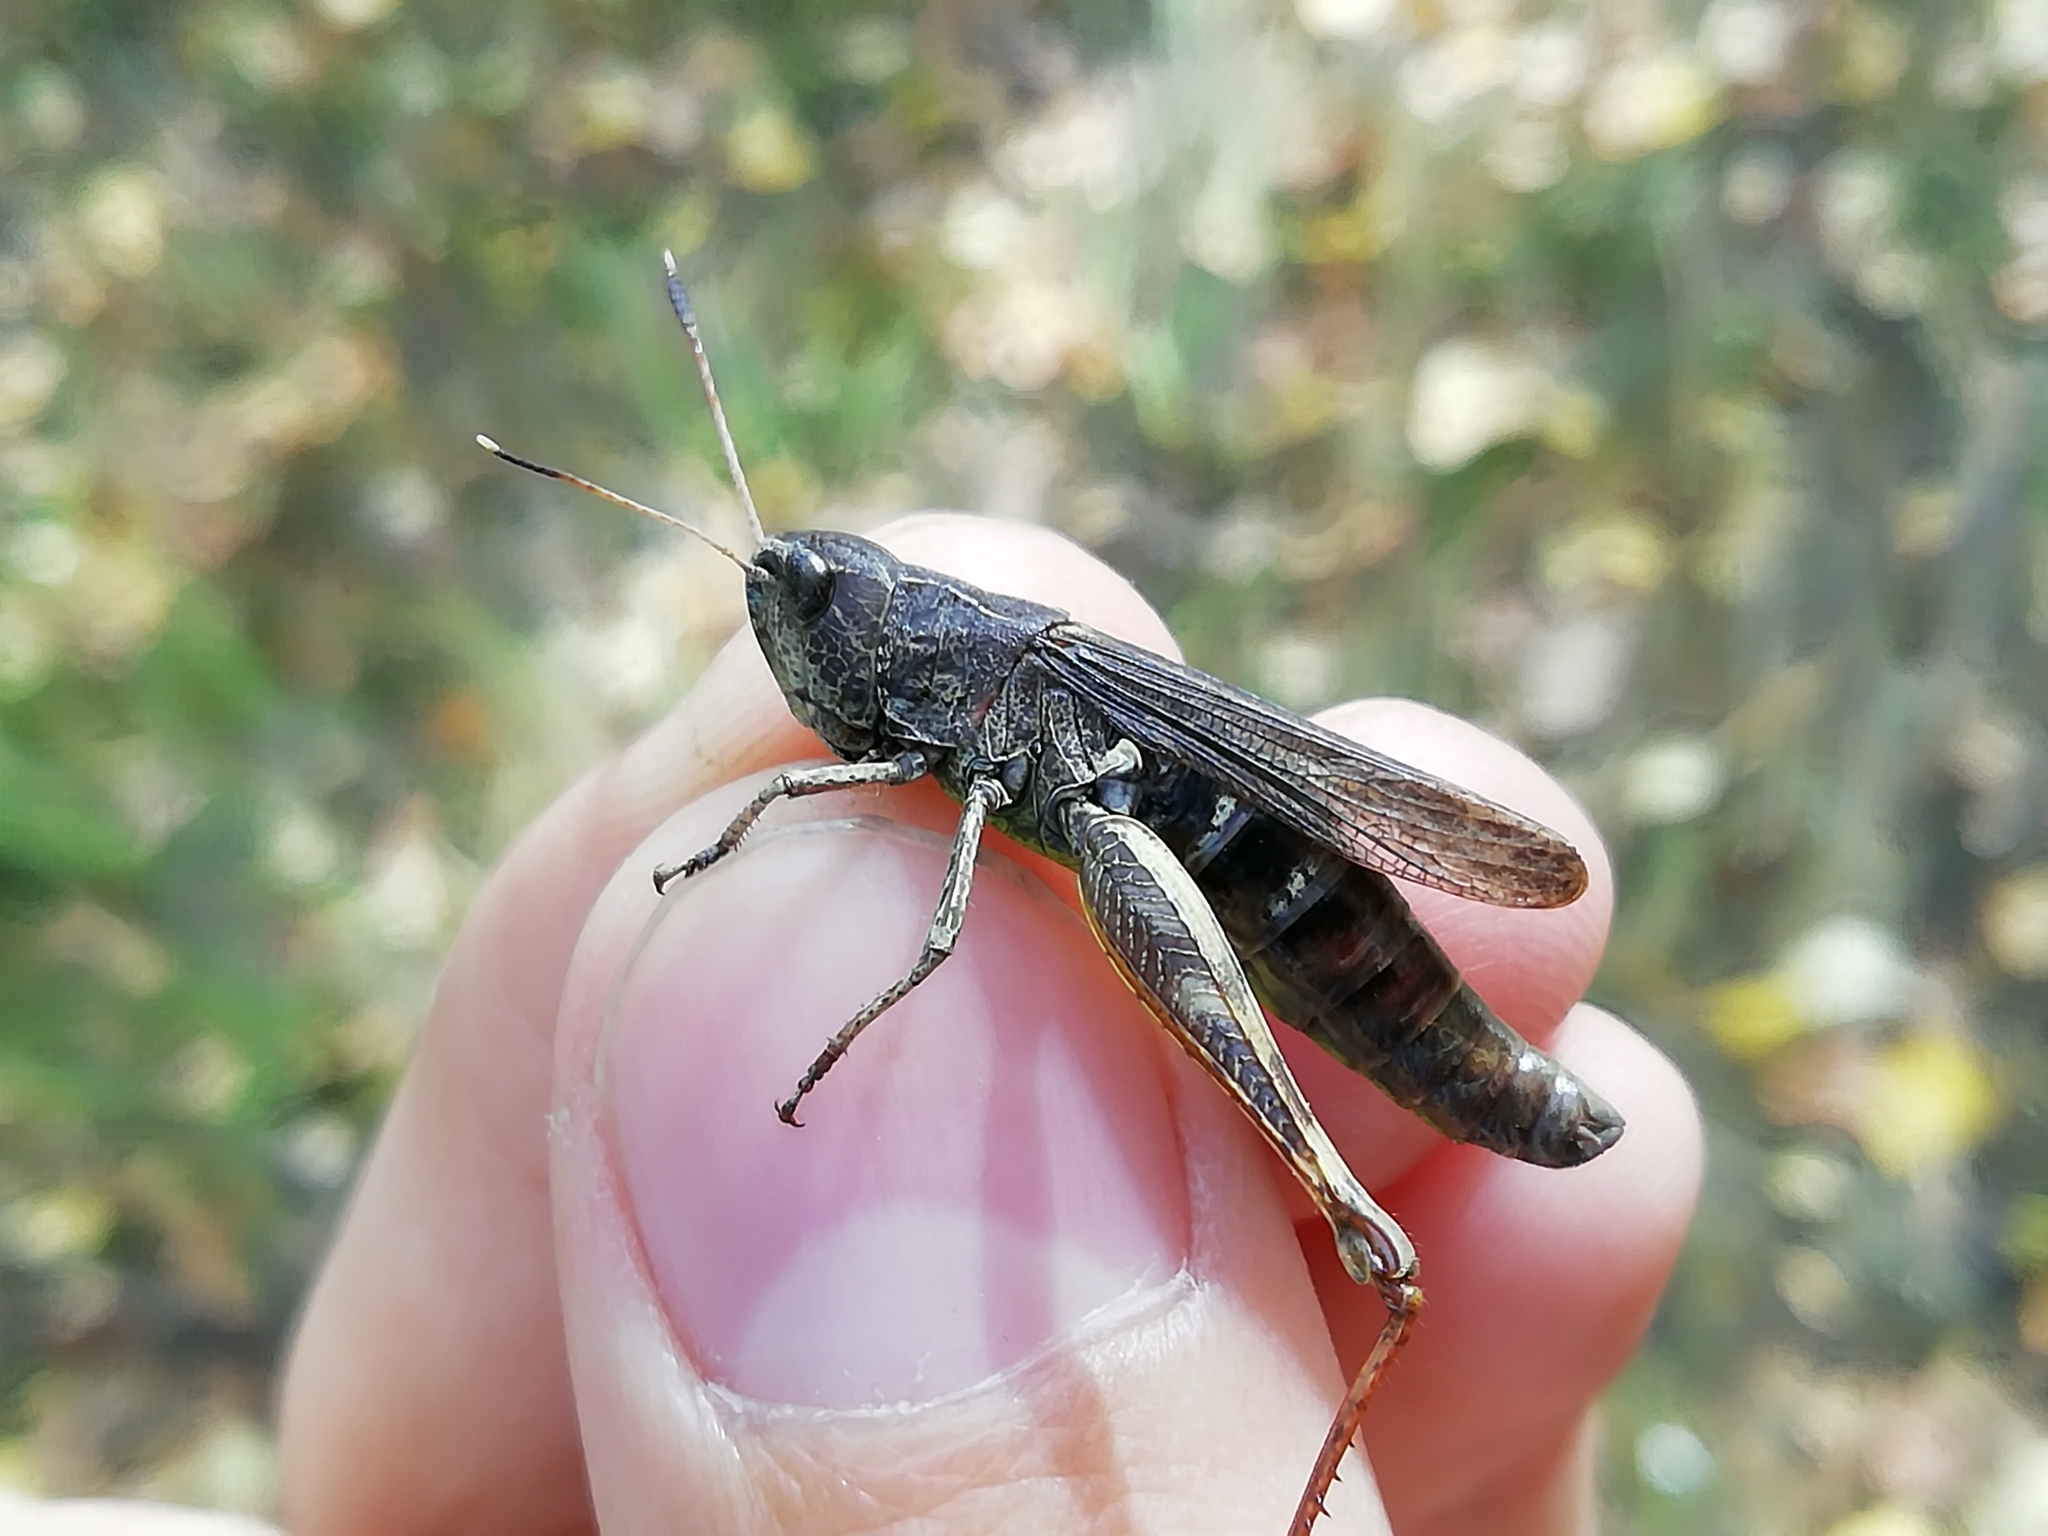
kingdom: Animalia
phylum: Arthropoda
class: Insecta
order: Orthoptera
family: Acrididae
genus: Gomphocerippus
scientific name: Gomphocerippus rufus
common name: Rufous grasshopper
